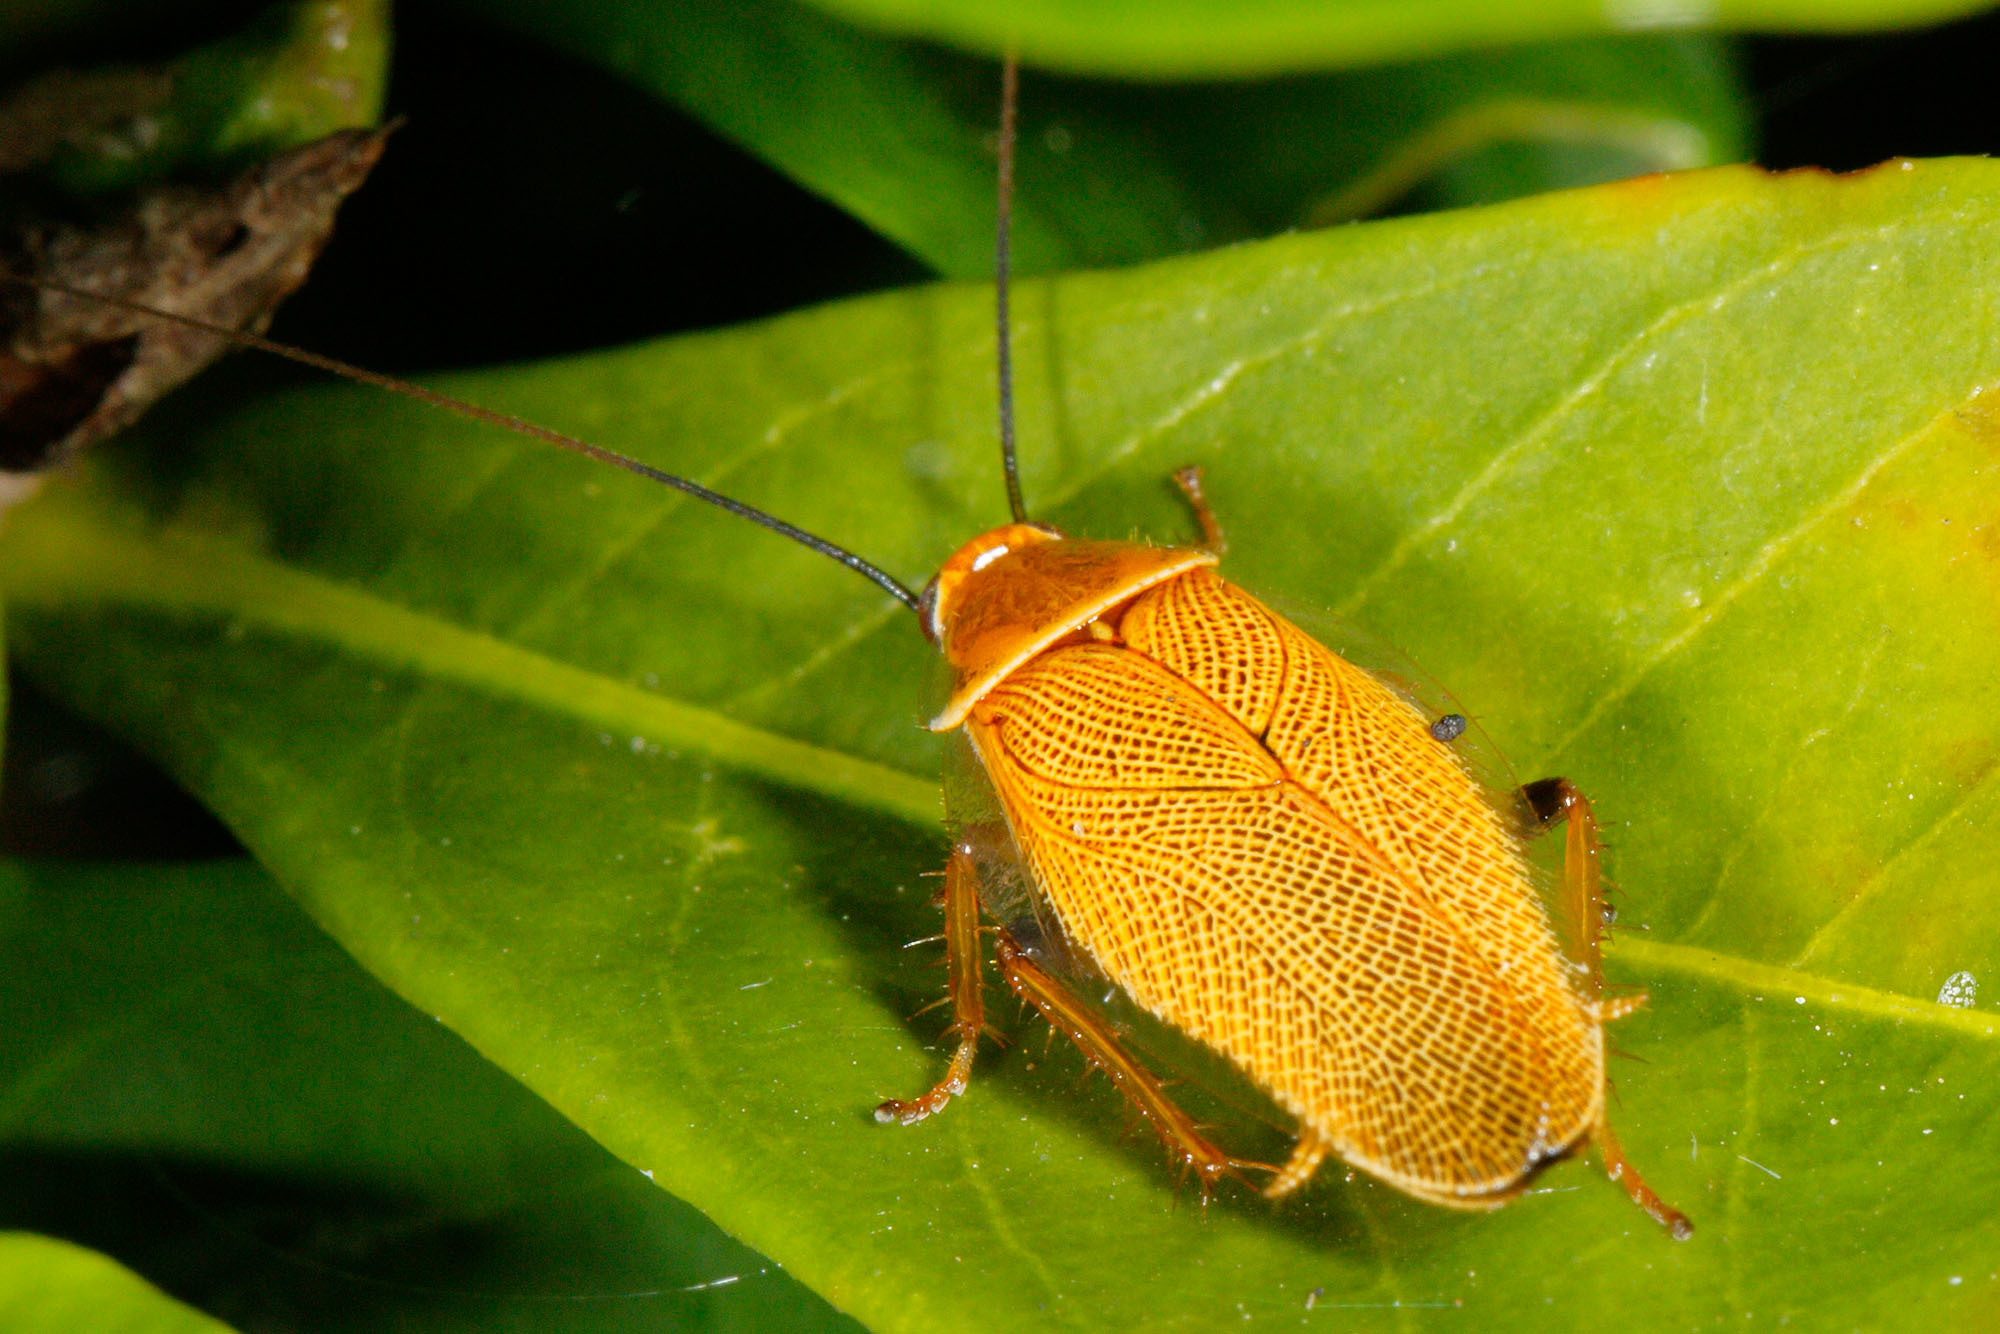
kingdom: Animalia
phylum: Arthropoda
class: Insecta
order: Blattodea
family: Ectobiidae
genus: Ellipsidion
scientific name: Ellipsidion humerale
